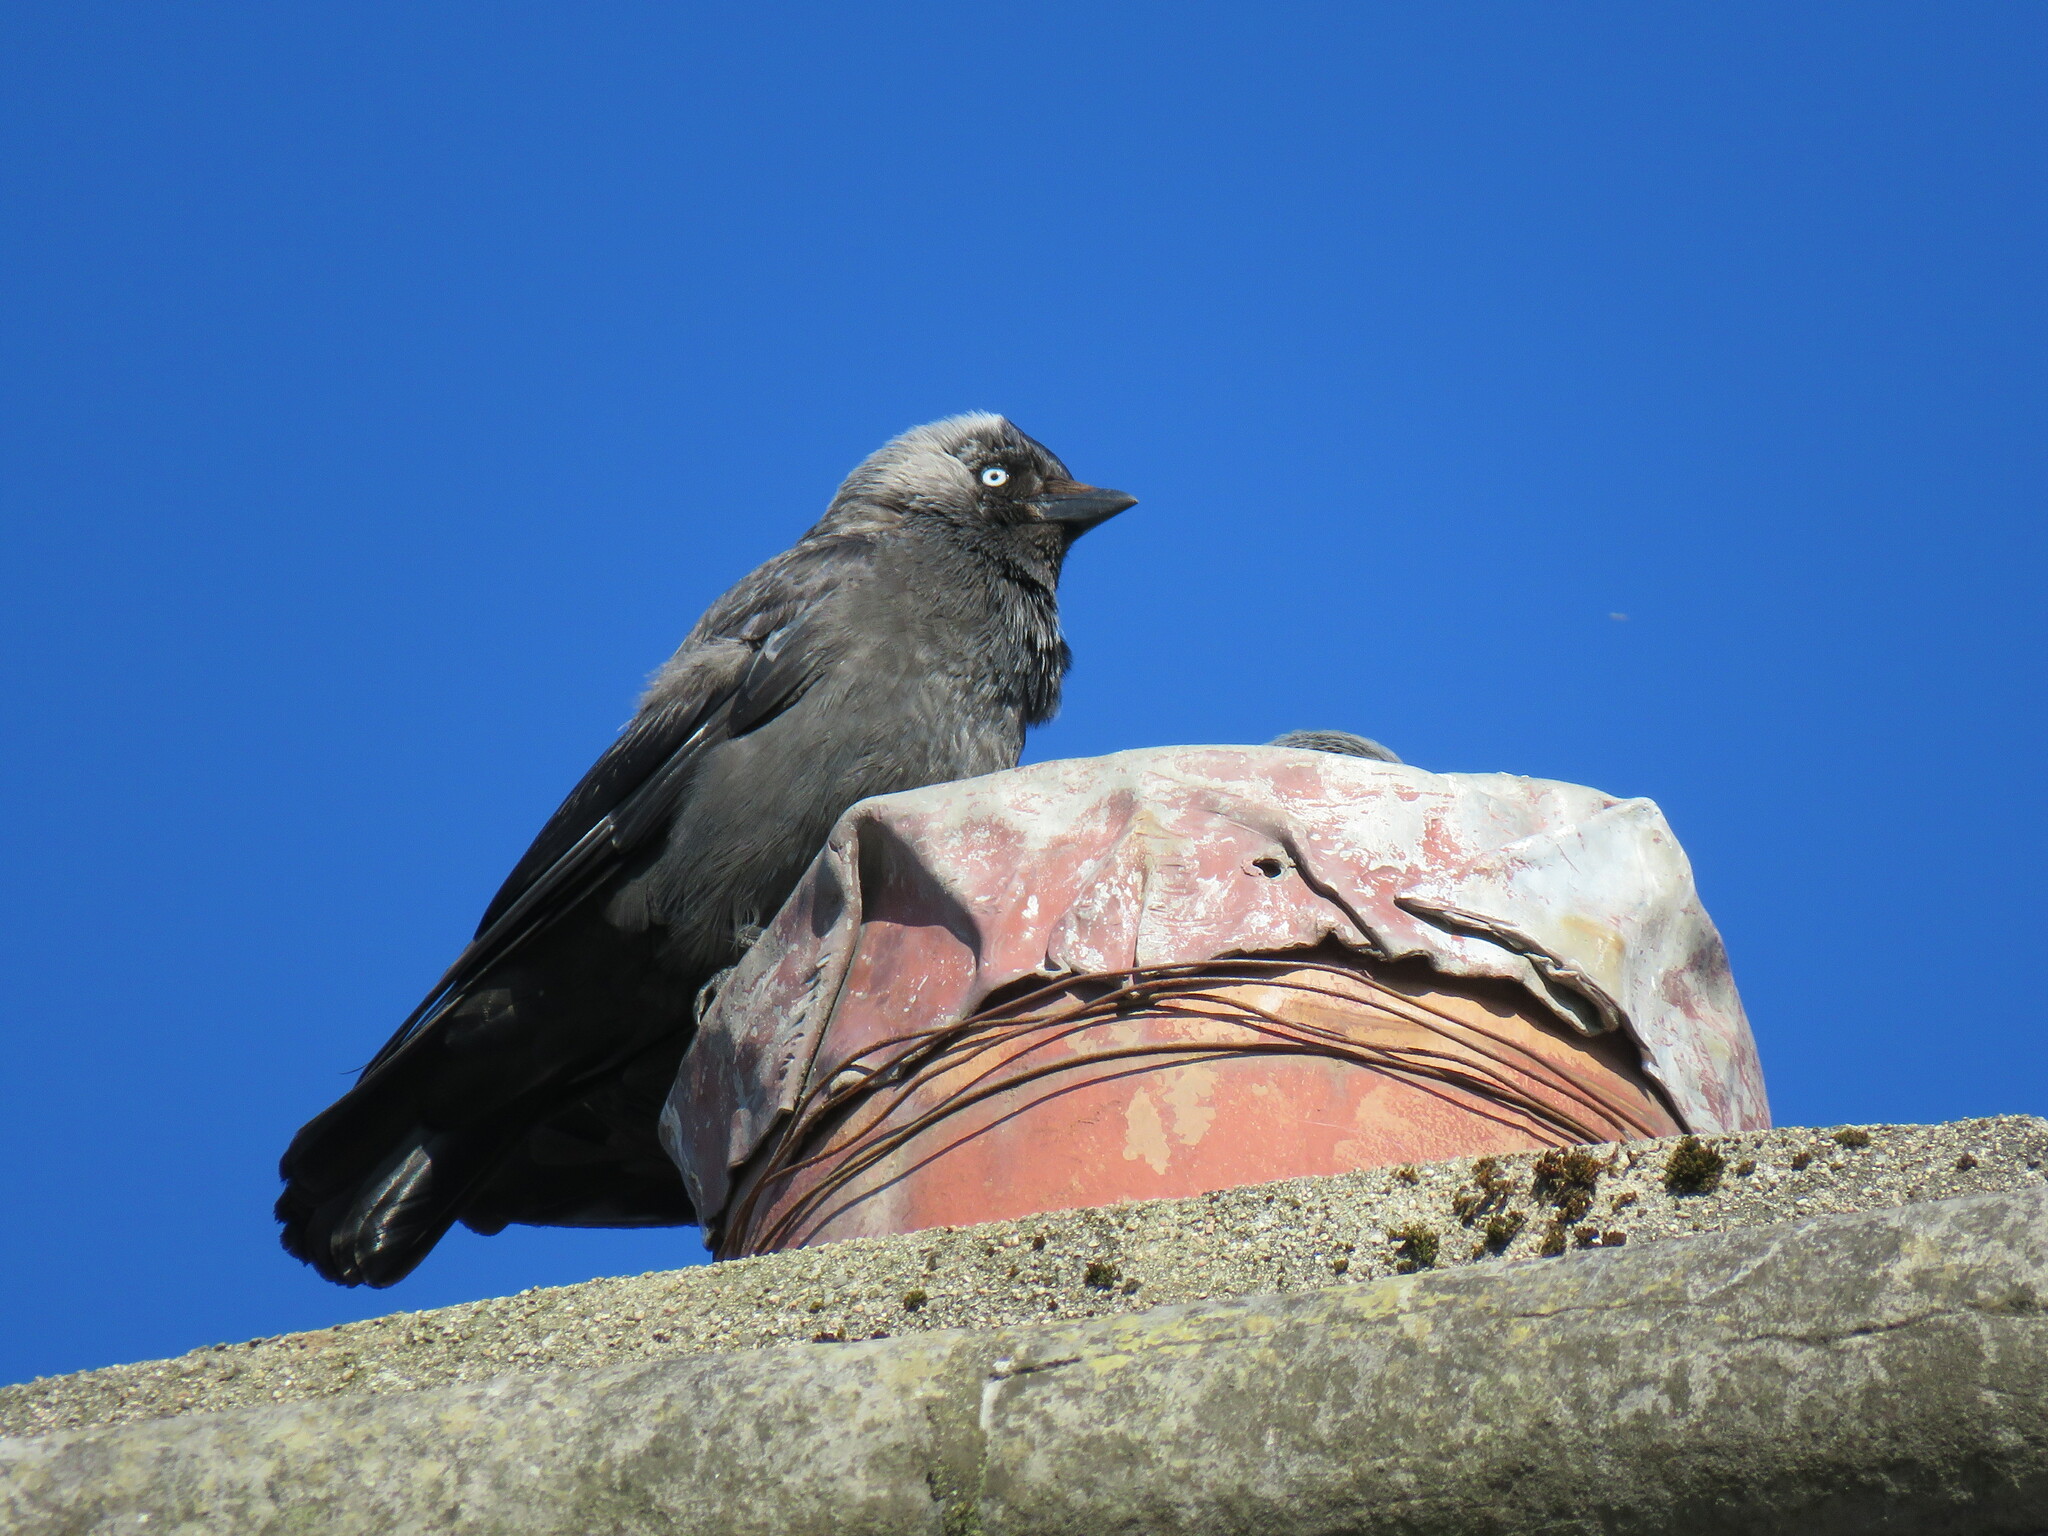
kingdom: Animalia
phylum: Chordata
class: Aves
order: Passeriformes
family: Corvidae
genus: Coloeus
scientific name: Coloeus monedula
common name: Western jackdaw
